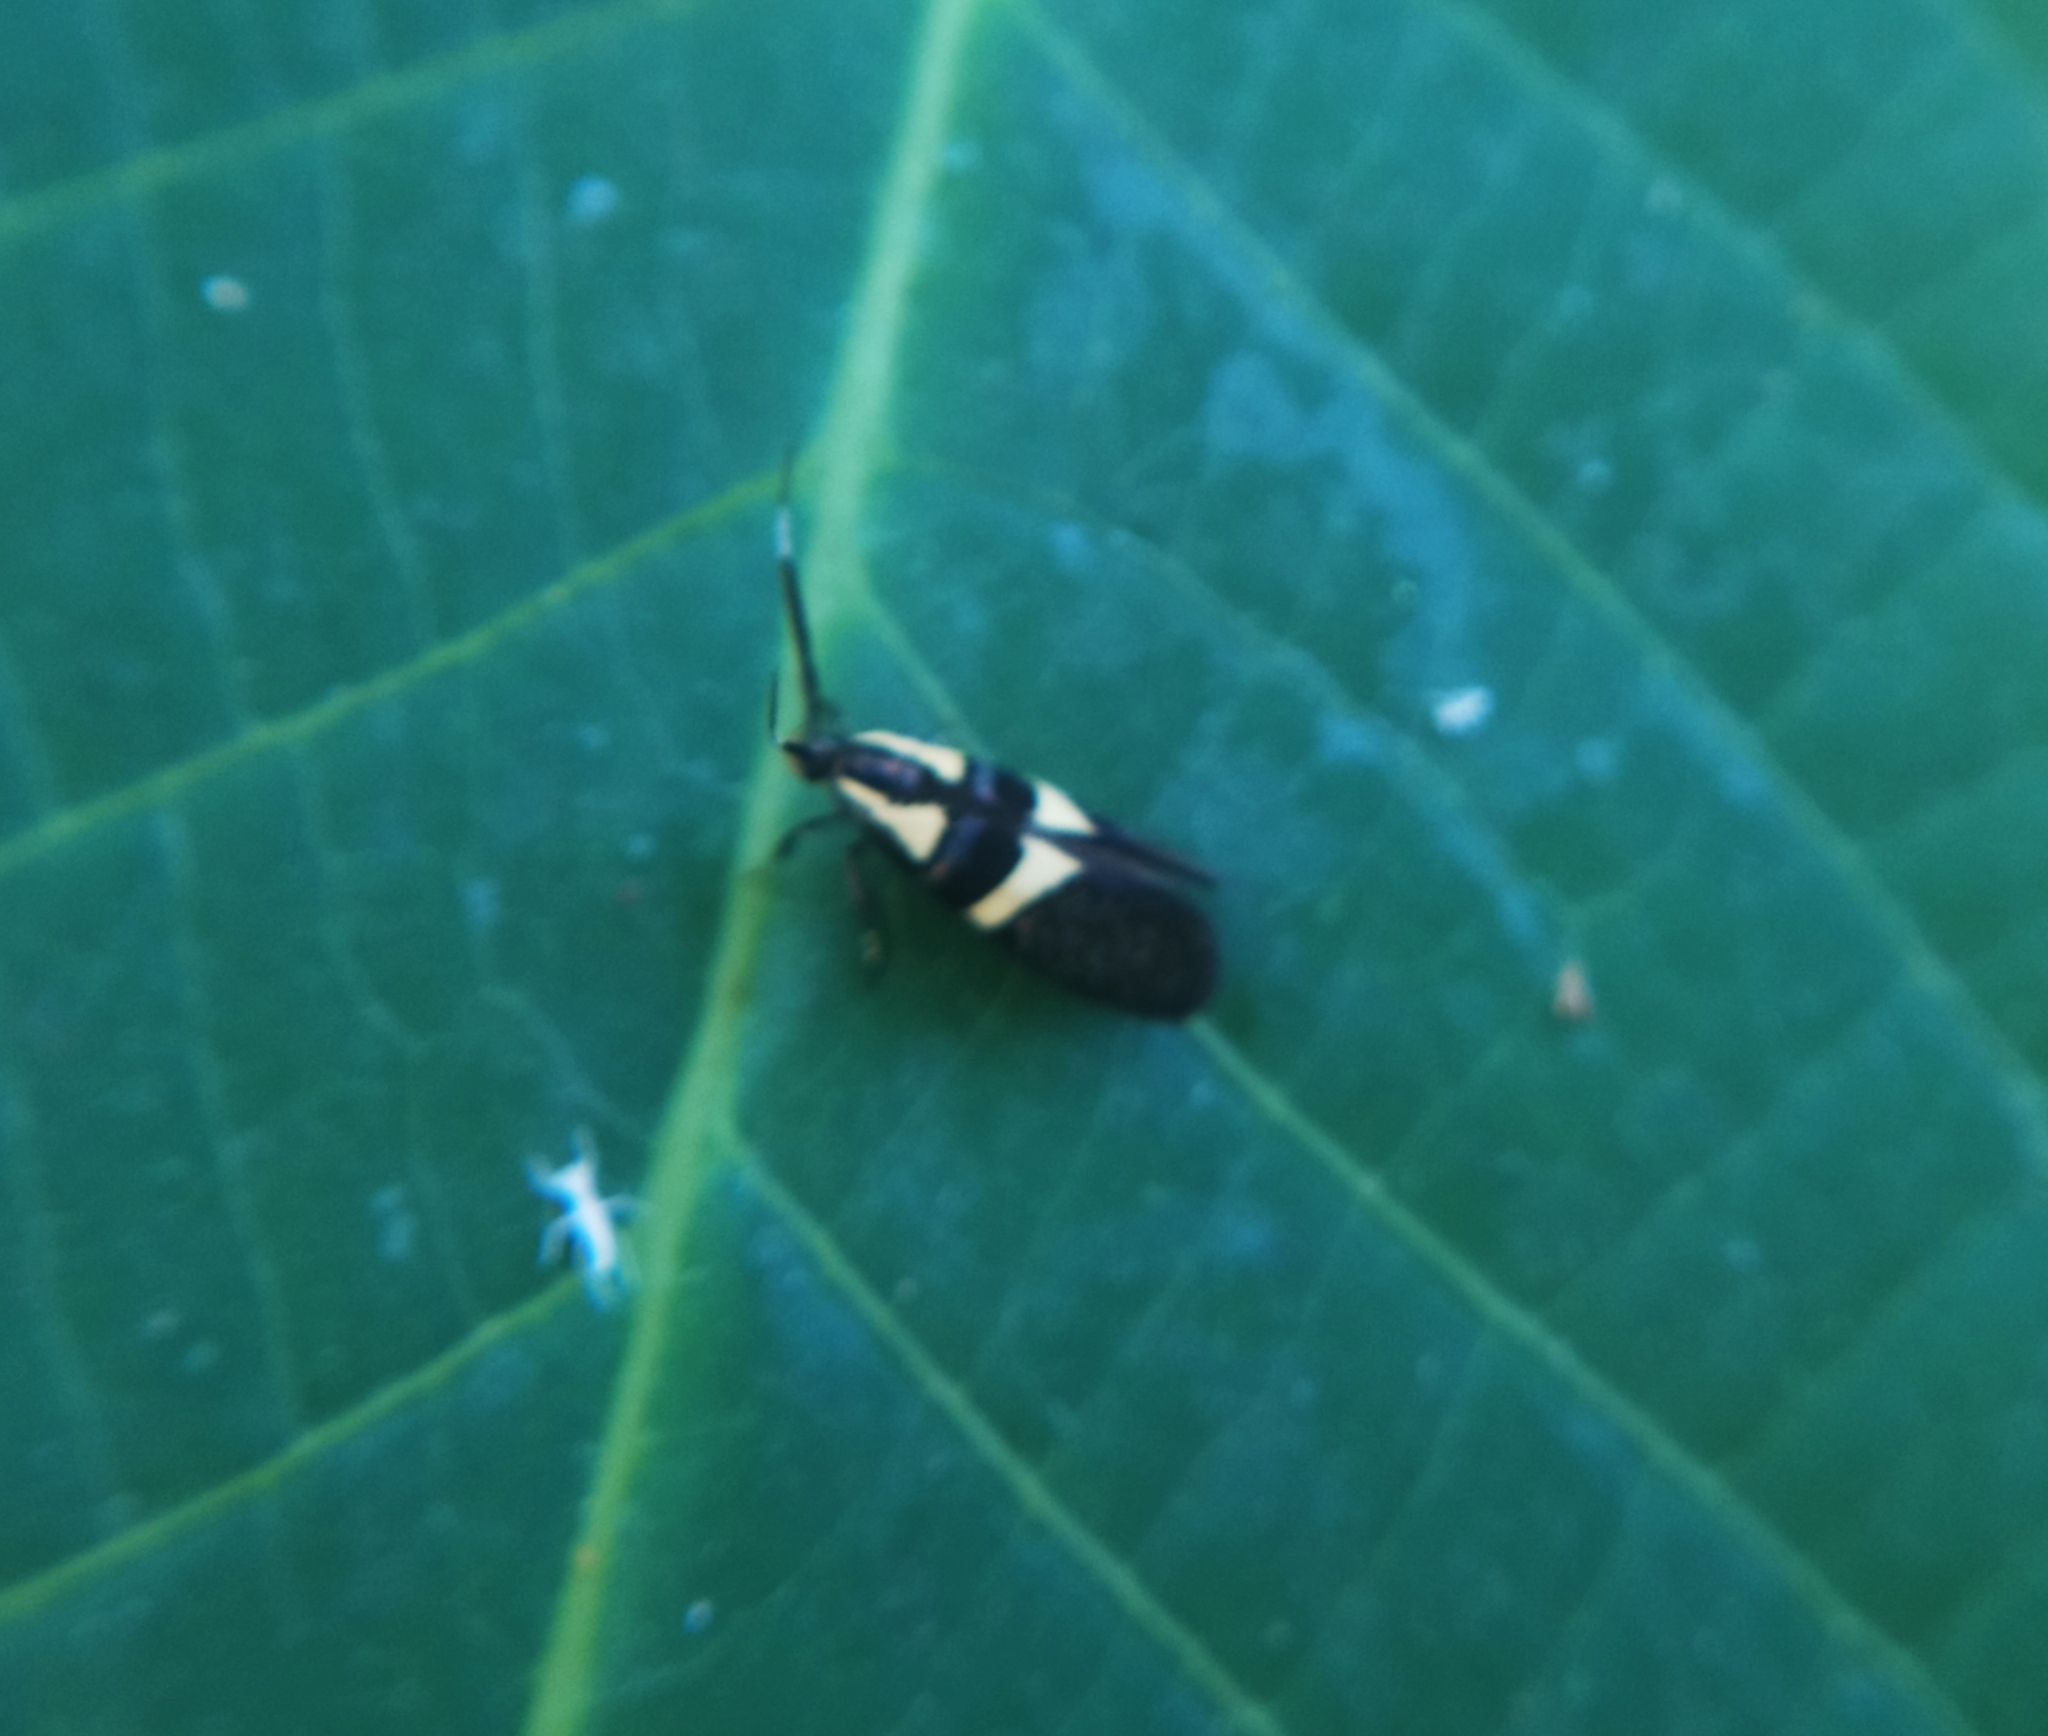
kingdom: Animalia
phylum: Arthropoda
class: Insecta
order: Lepidoptera
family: Oecophoridae
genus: Dafa
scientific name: Dafa oliviella
